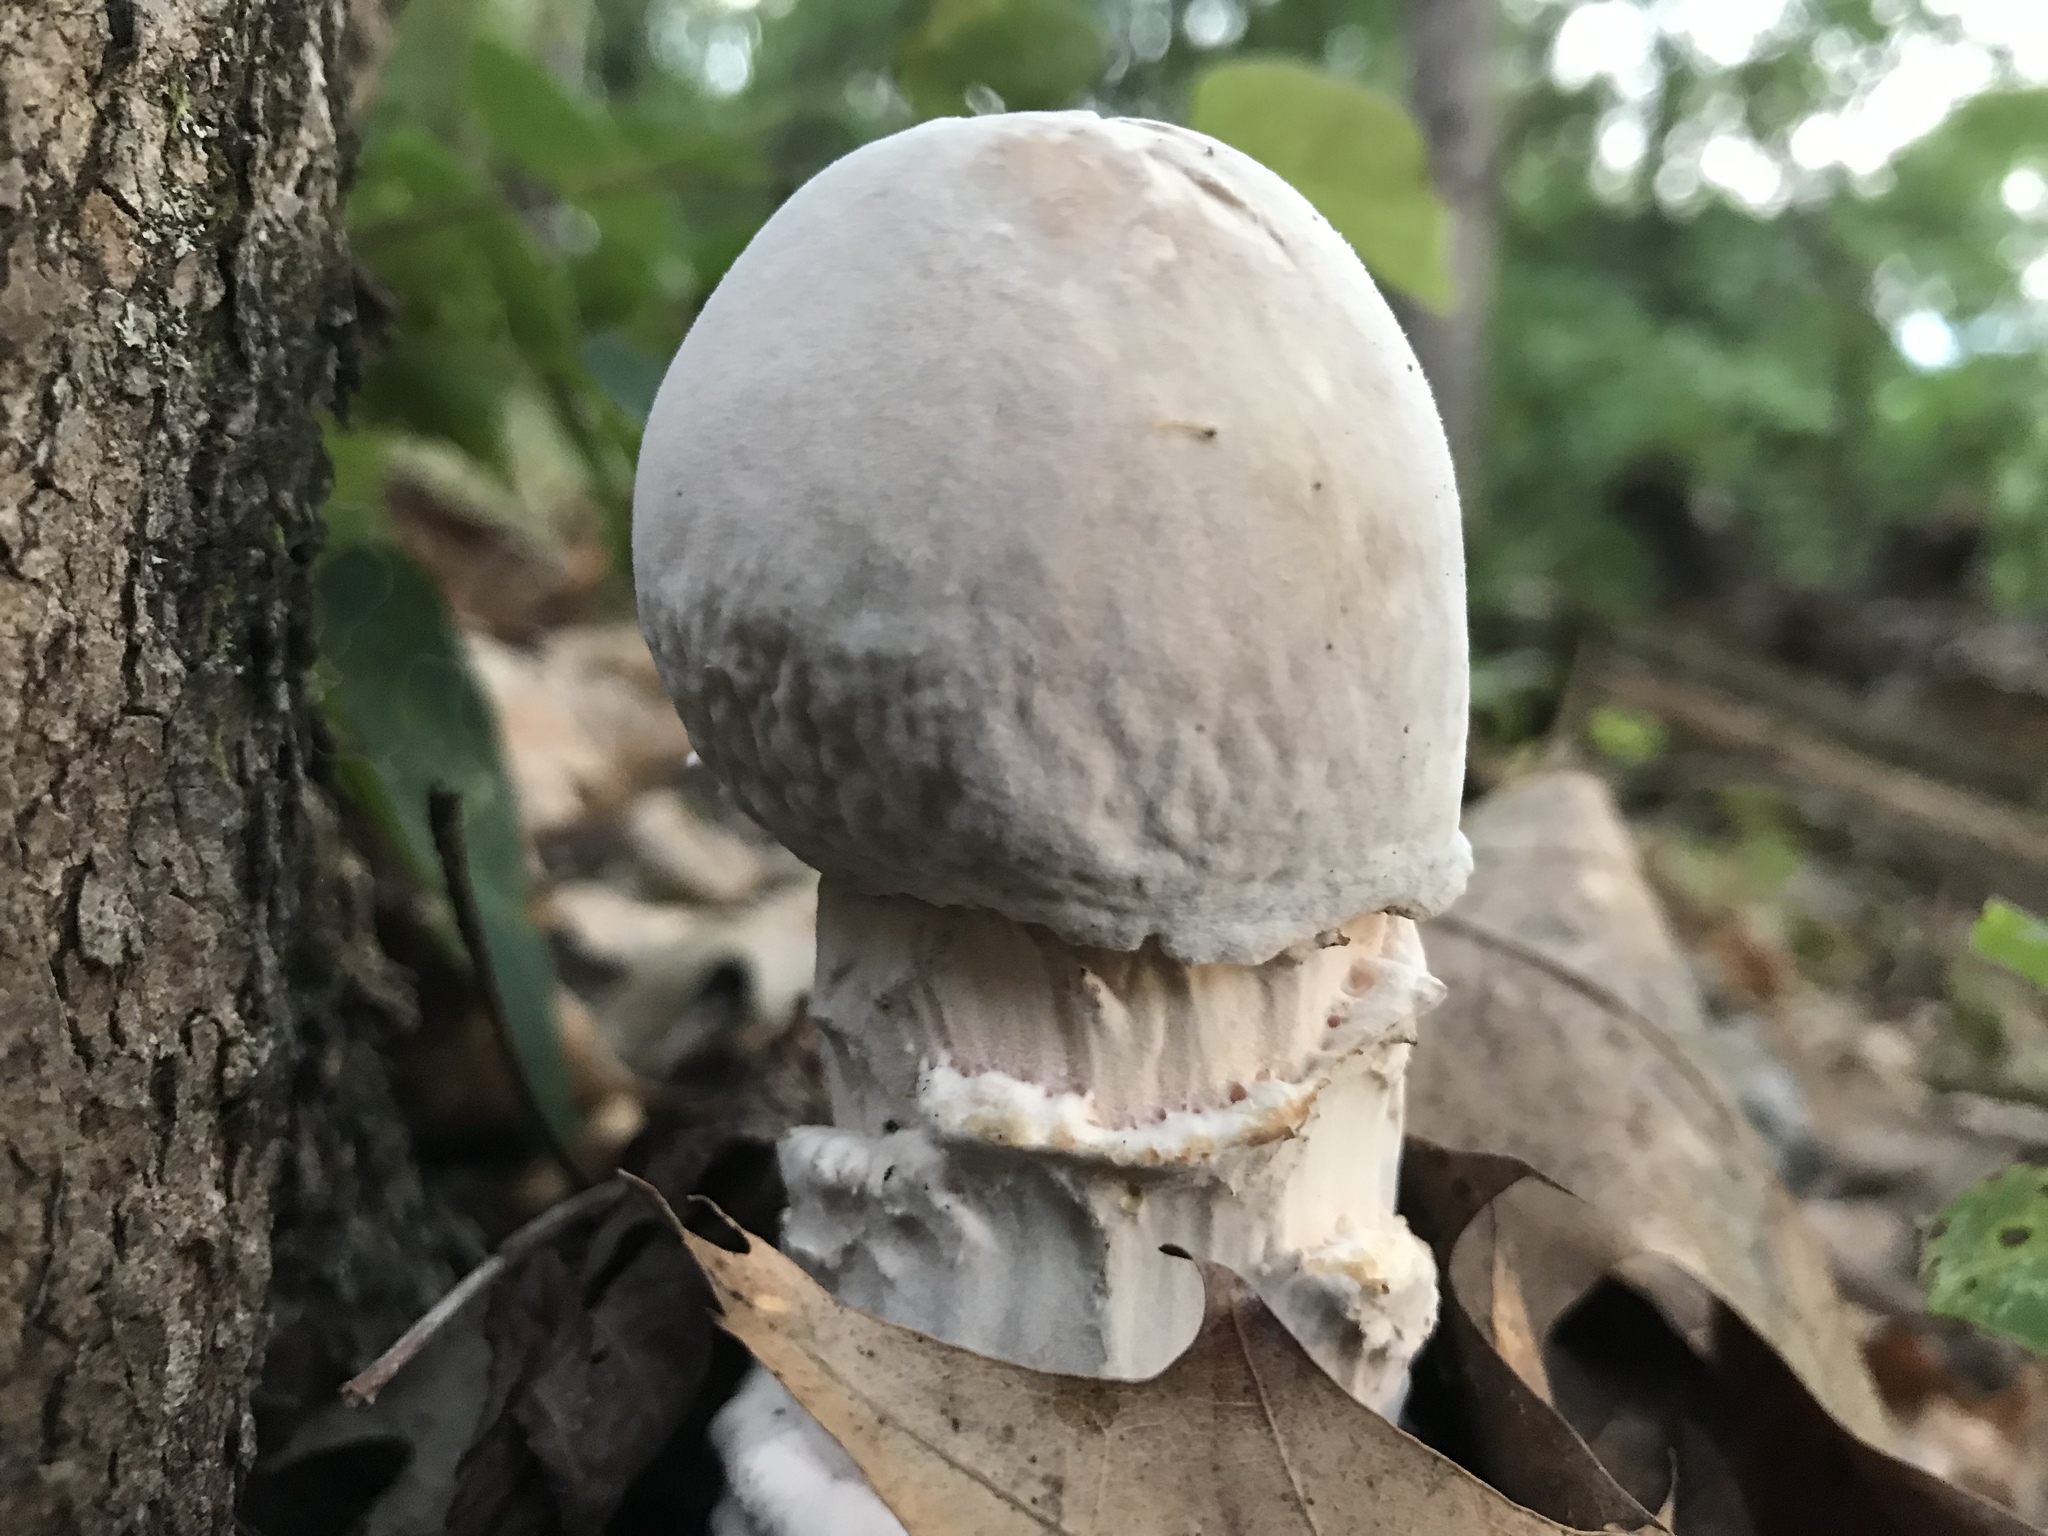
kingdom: Fungi
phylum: Ascomycota
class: Sordariomycetes
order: Hypocreales
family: Hypocreaceae
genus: Hypomyces
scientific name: Hypomyces hyalinus
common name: Amanita mold
